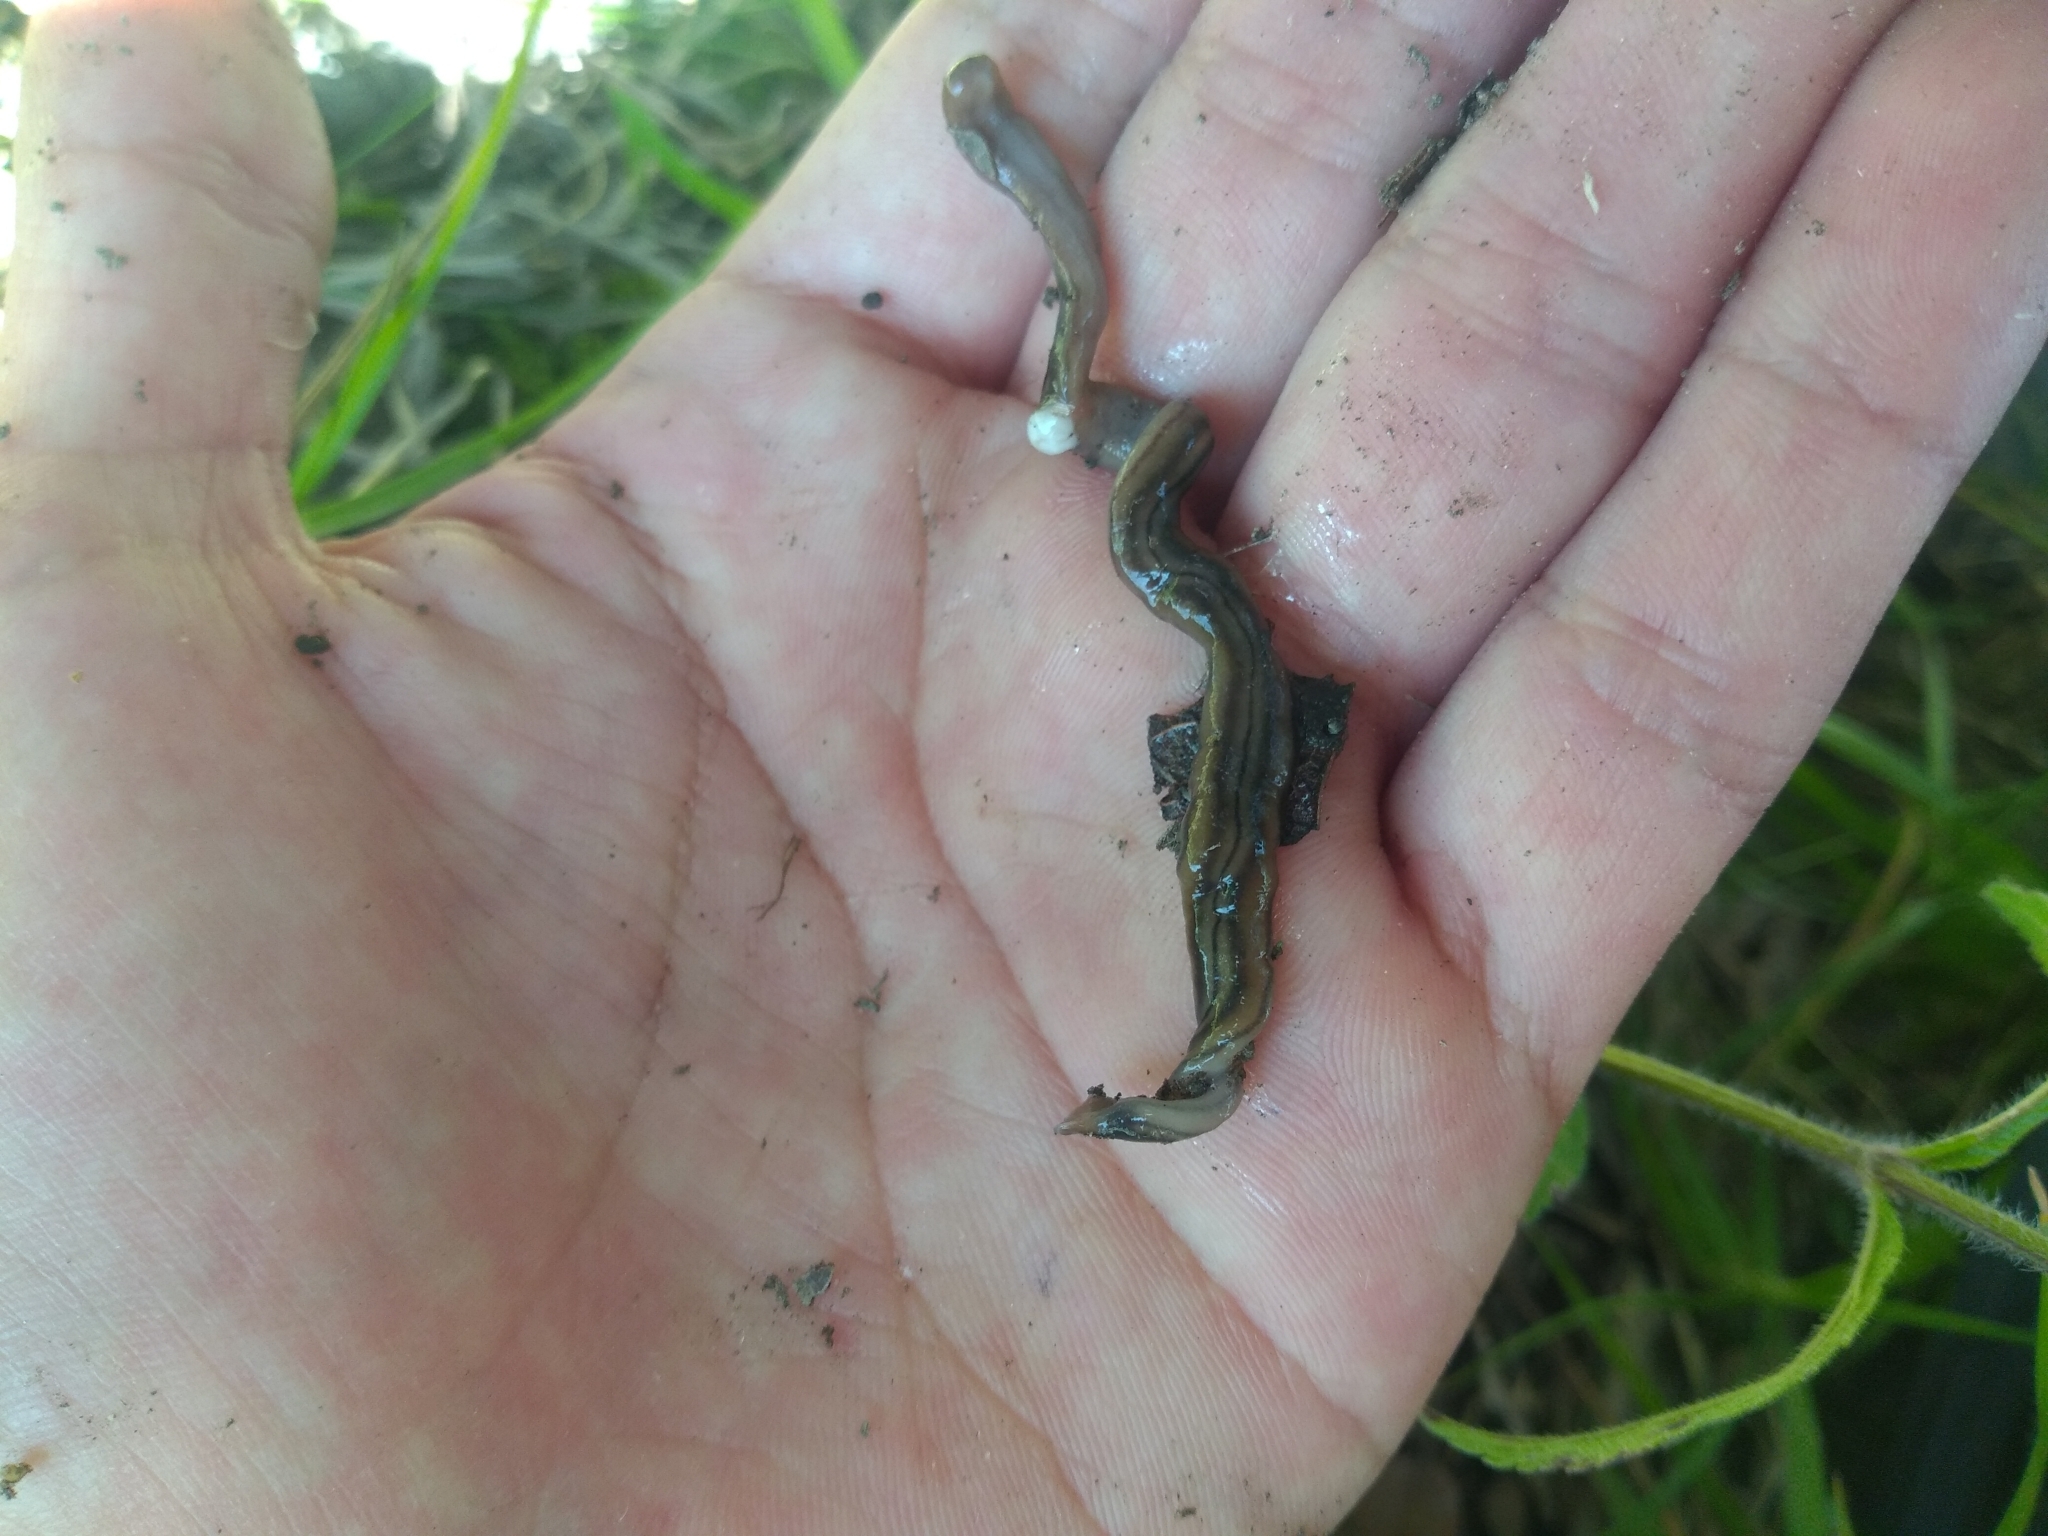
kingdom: Animalia
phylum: Platyhelminthes
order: Tricladida
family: Geoplanidae
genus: Bipalium
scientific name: Bipalium kewense
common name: Hammerhead flatworm
